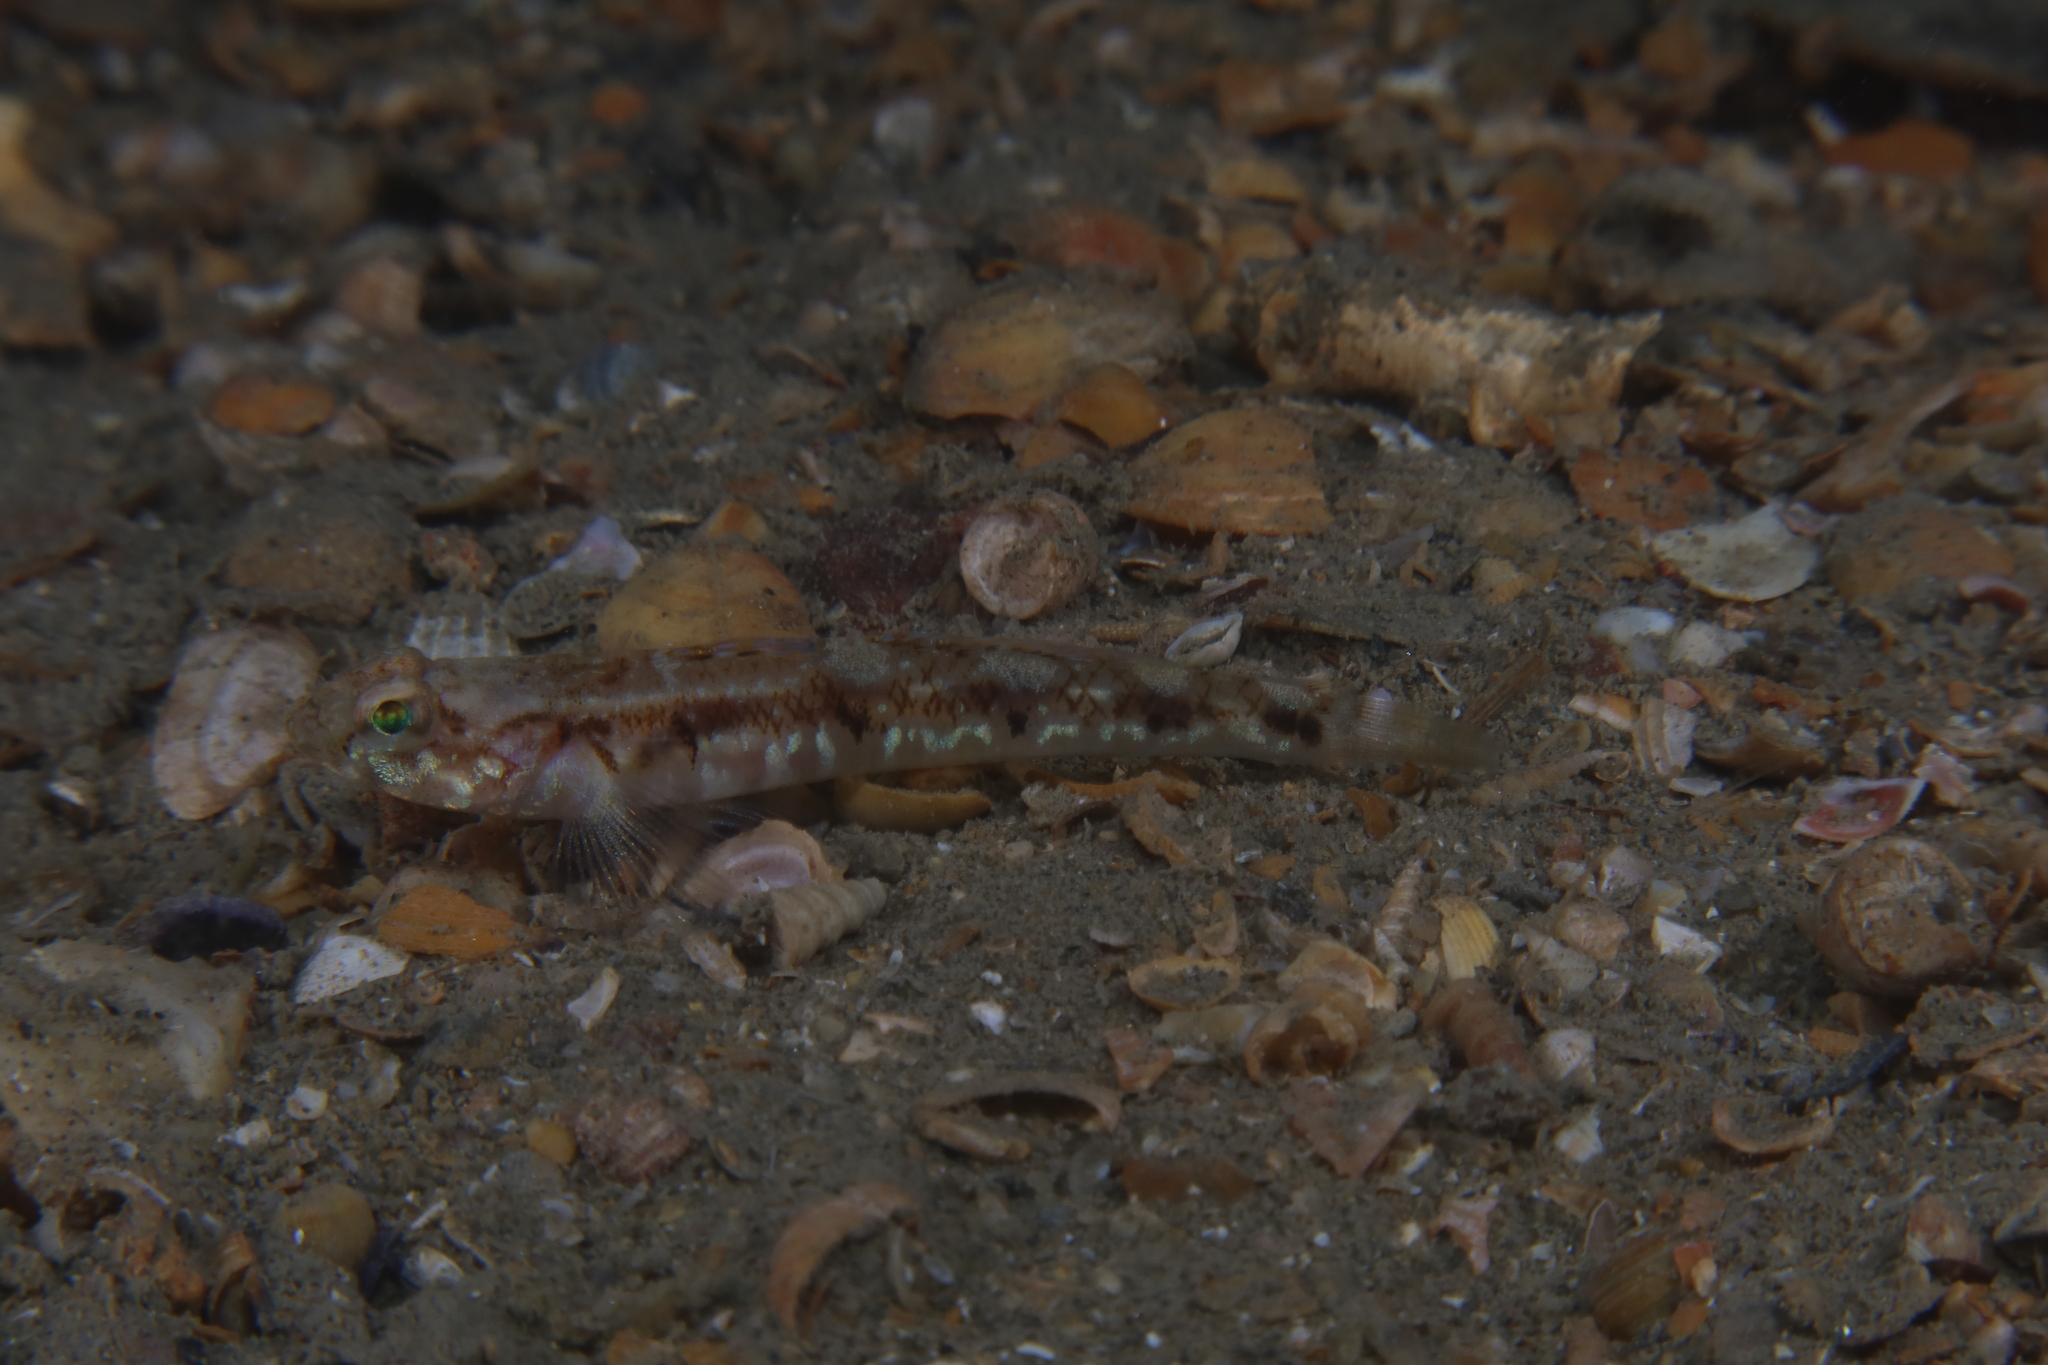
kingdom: Animalia
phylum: Chordata
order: Perciformes
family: Gobiidae
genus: Pomatoschistus
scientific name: Pomatoschistus pictus
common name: Painted goby
